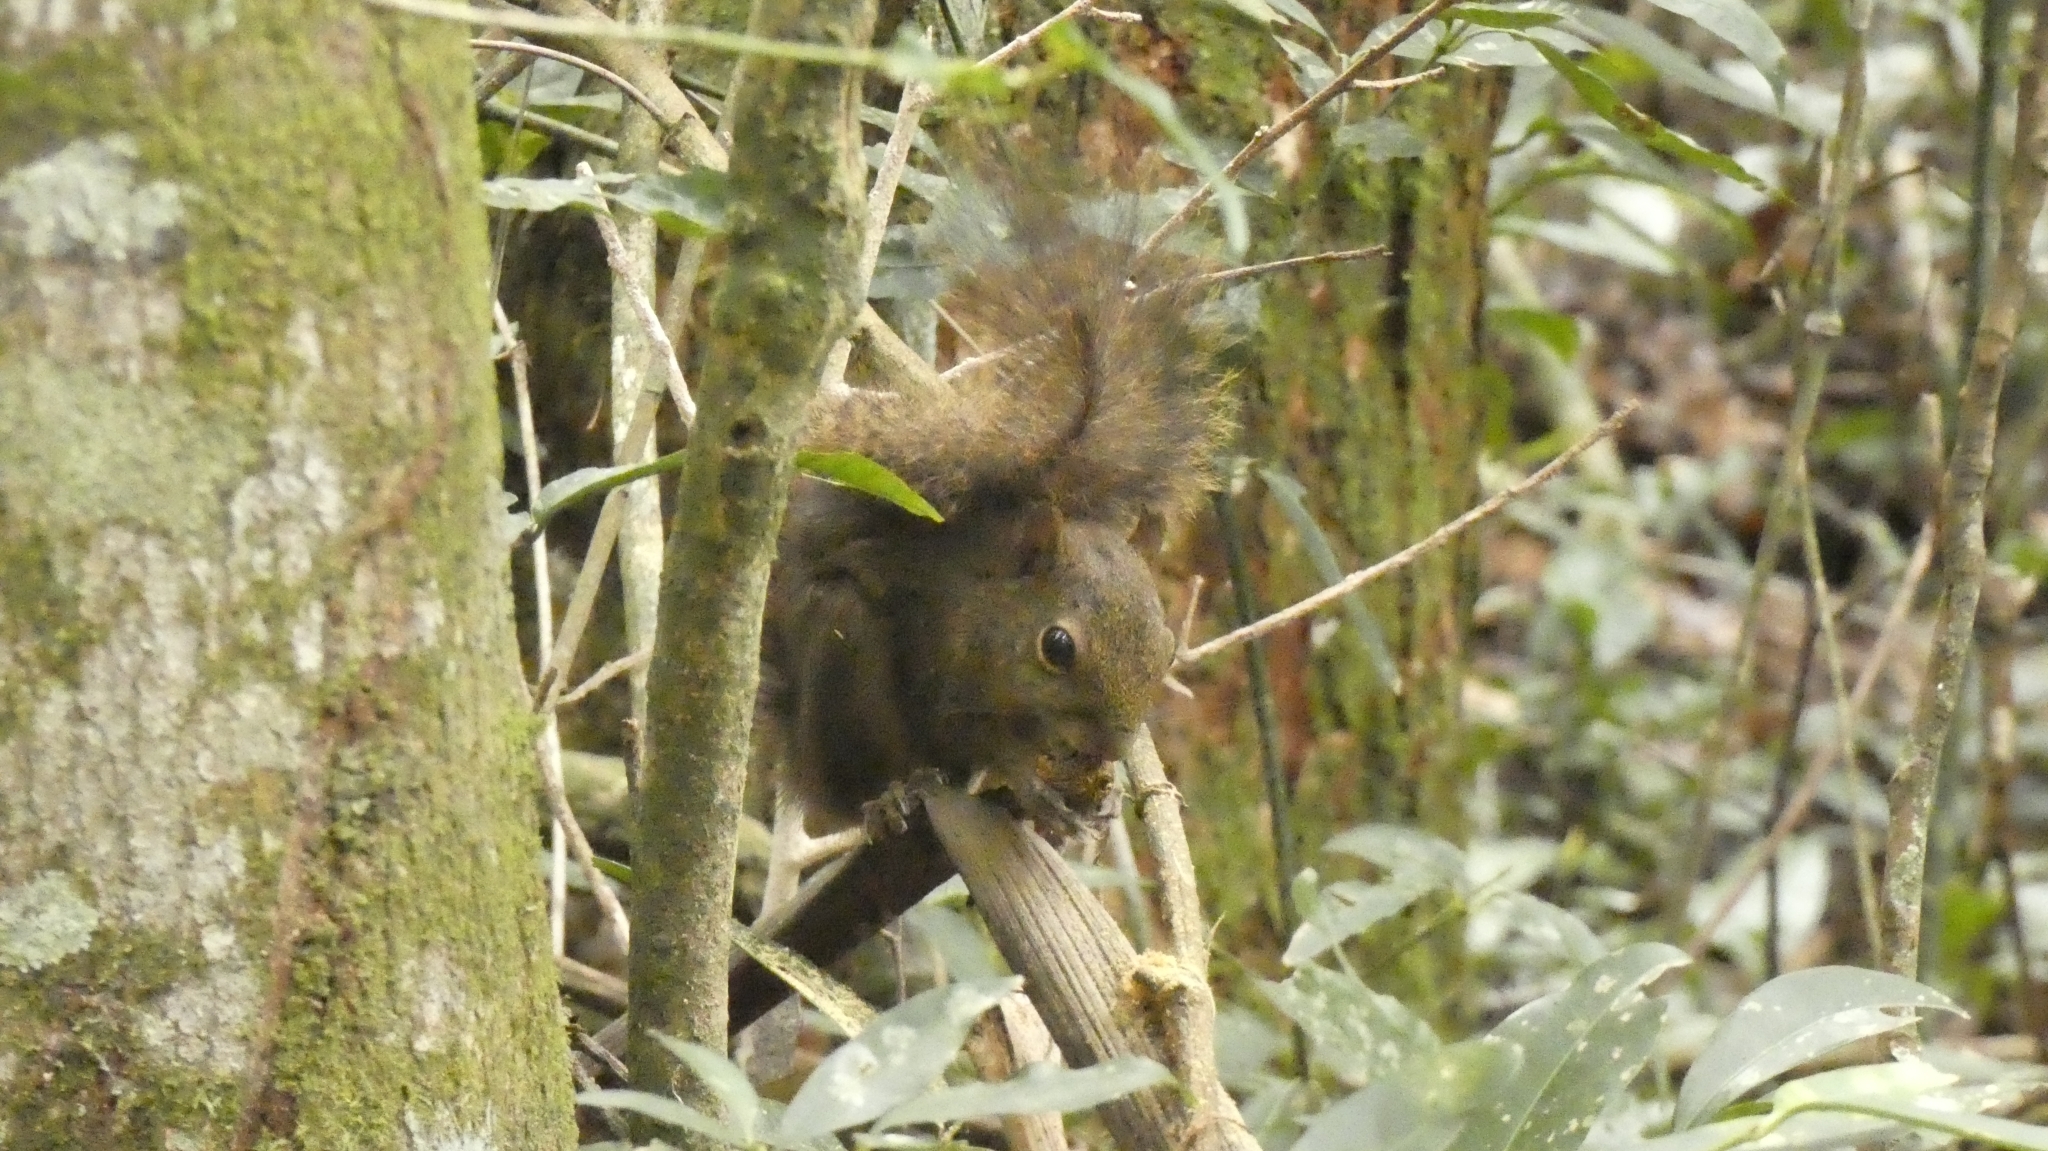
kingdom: Animalia
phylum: Chordata
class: Mammalia
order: Rodentia
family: Sciuridae
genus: Sciurus
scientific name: Sciurus aestuans
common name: Guianan squirrel
